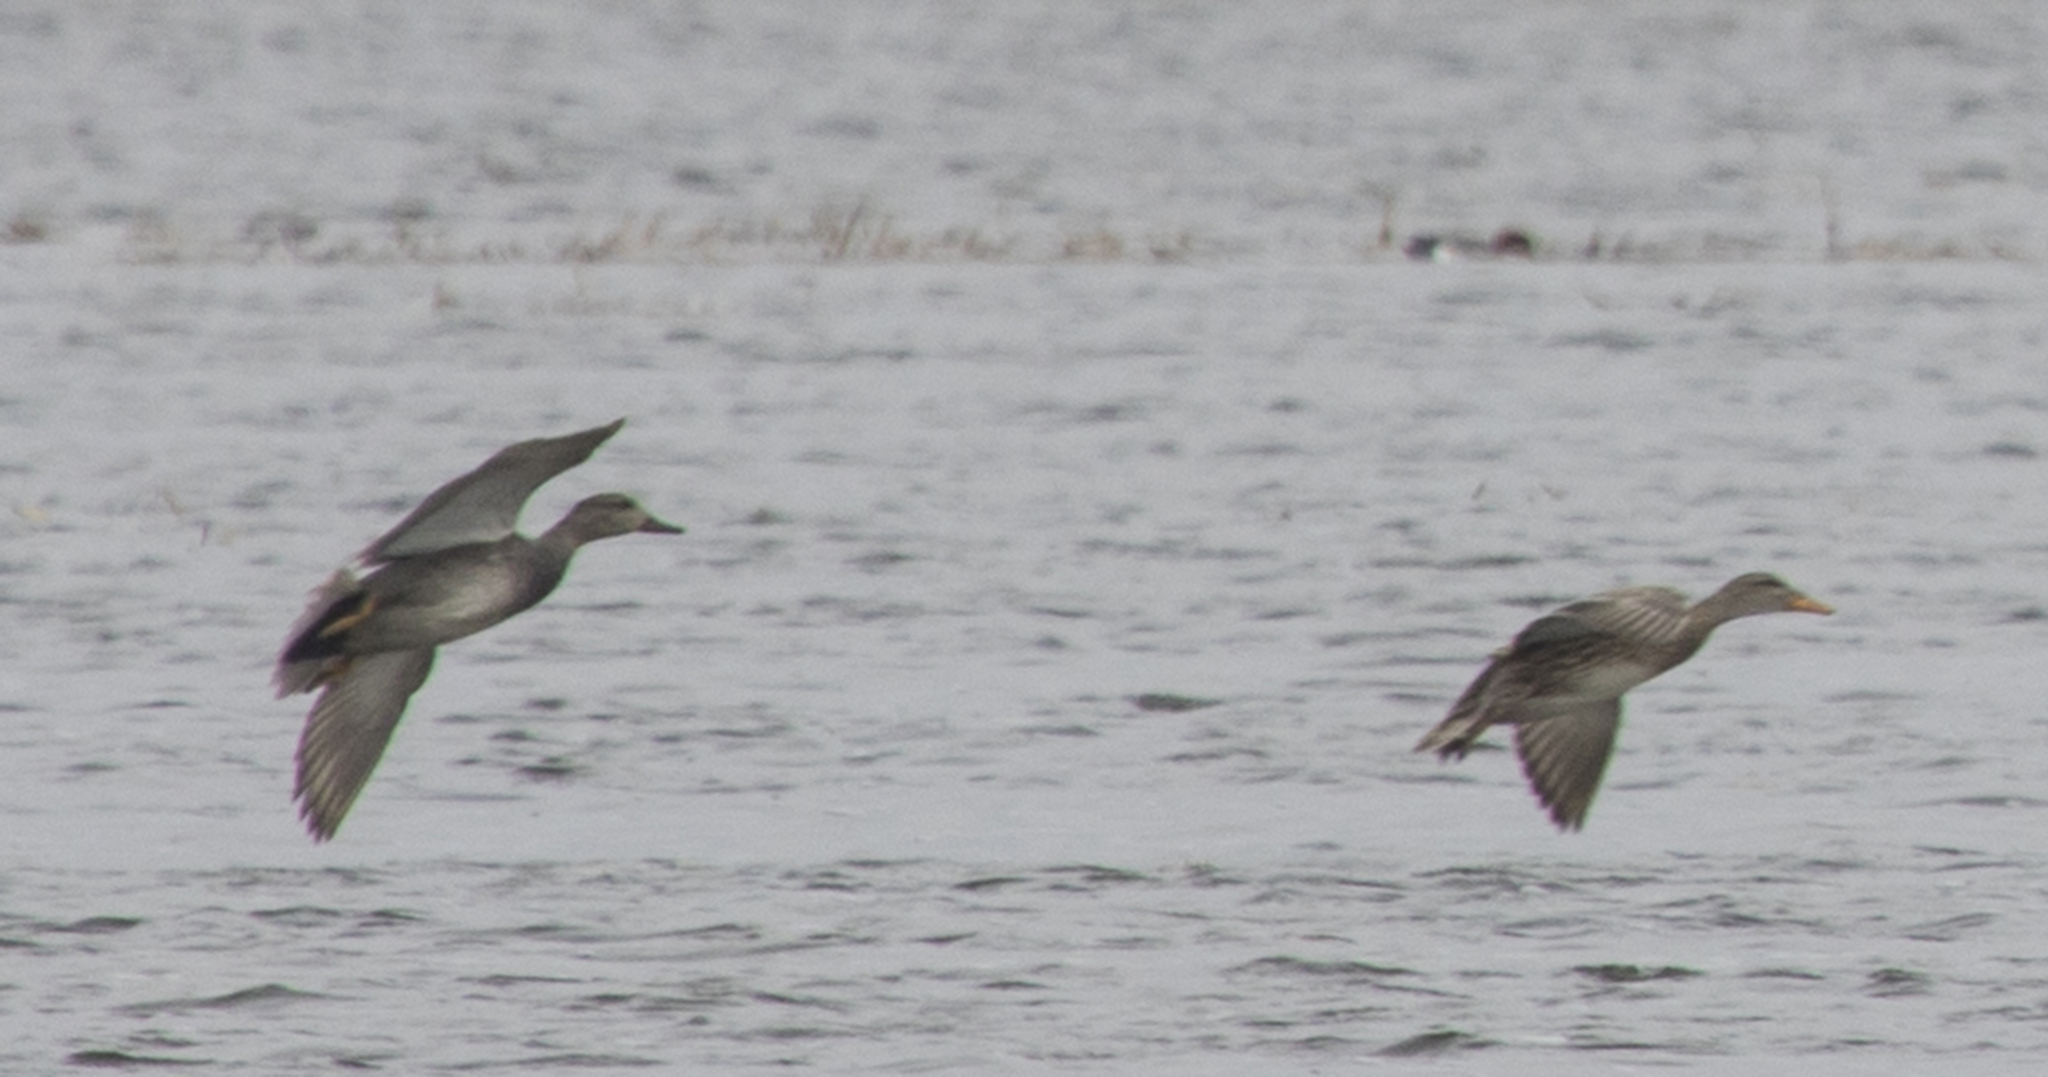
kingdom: Animalia
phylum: Chordata
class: Aves
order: Anseriformes
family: Anatidae
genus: Mareca
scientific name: Mareca strepera
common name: Gadwall
